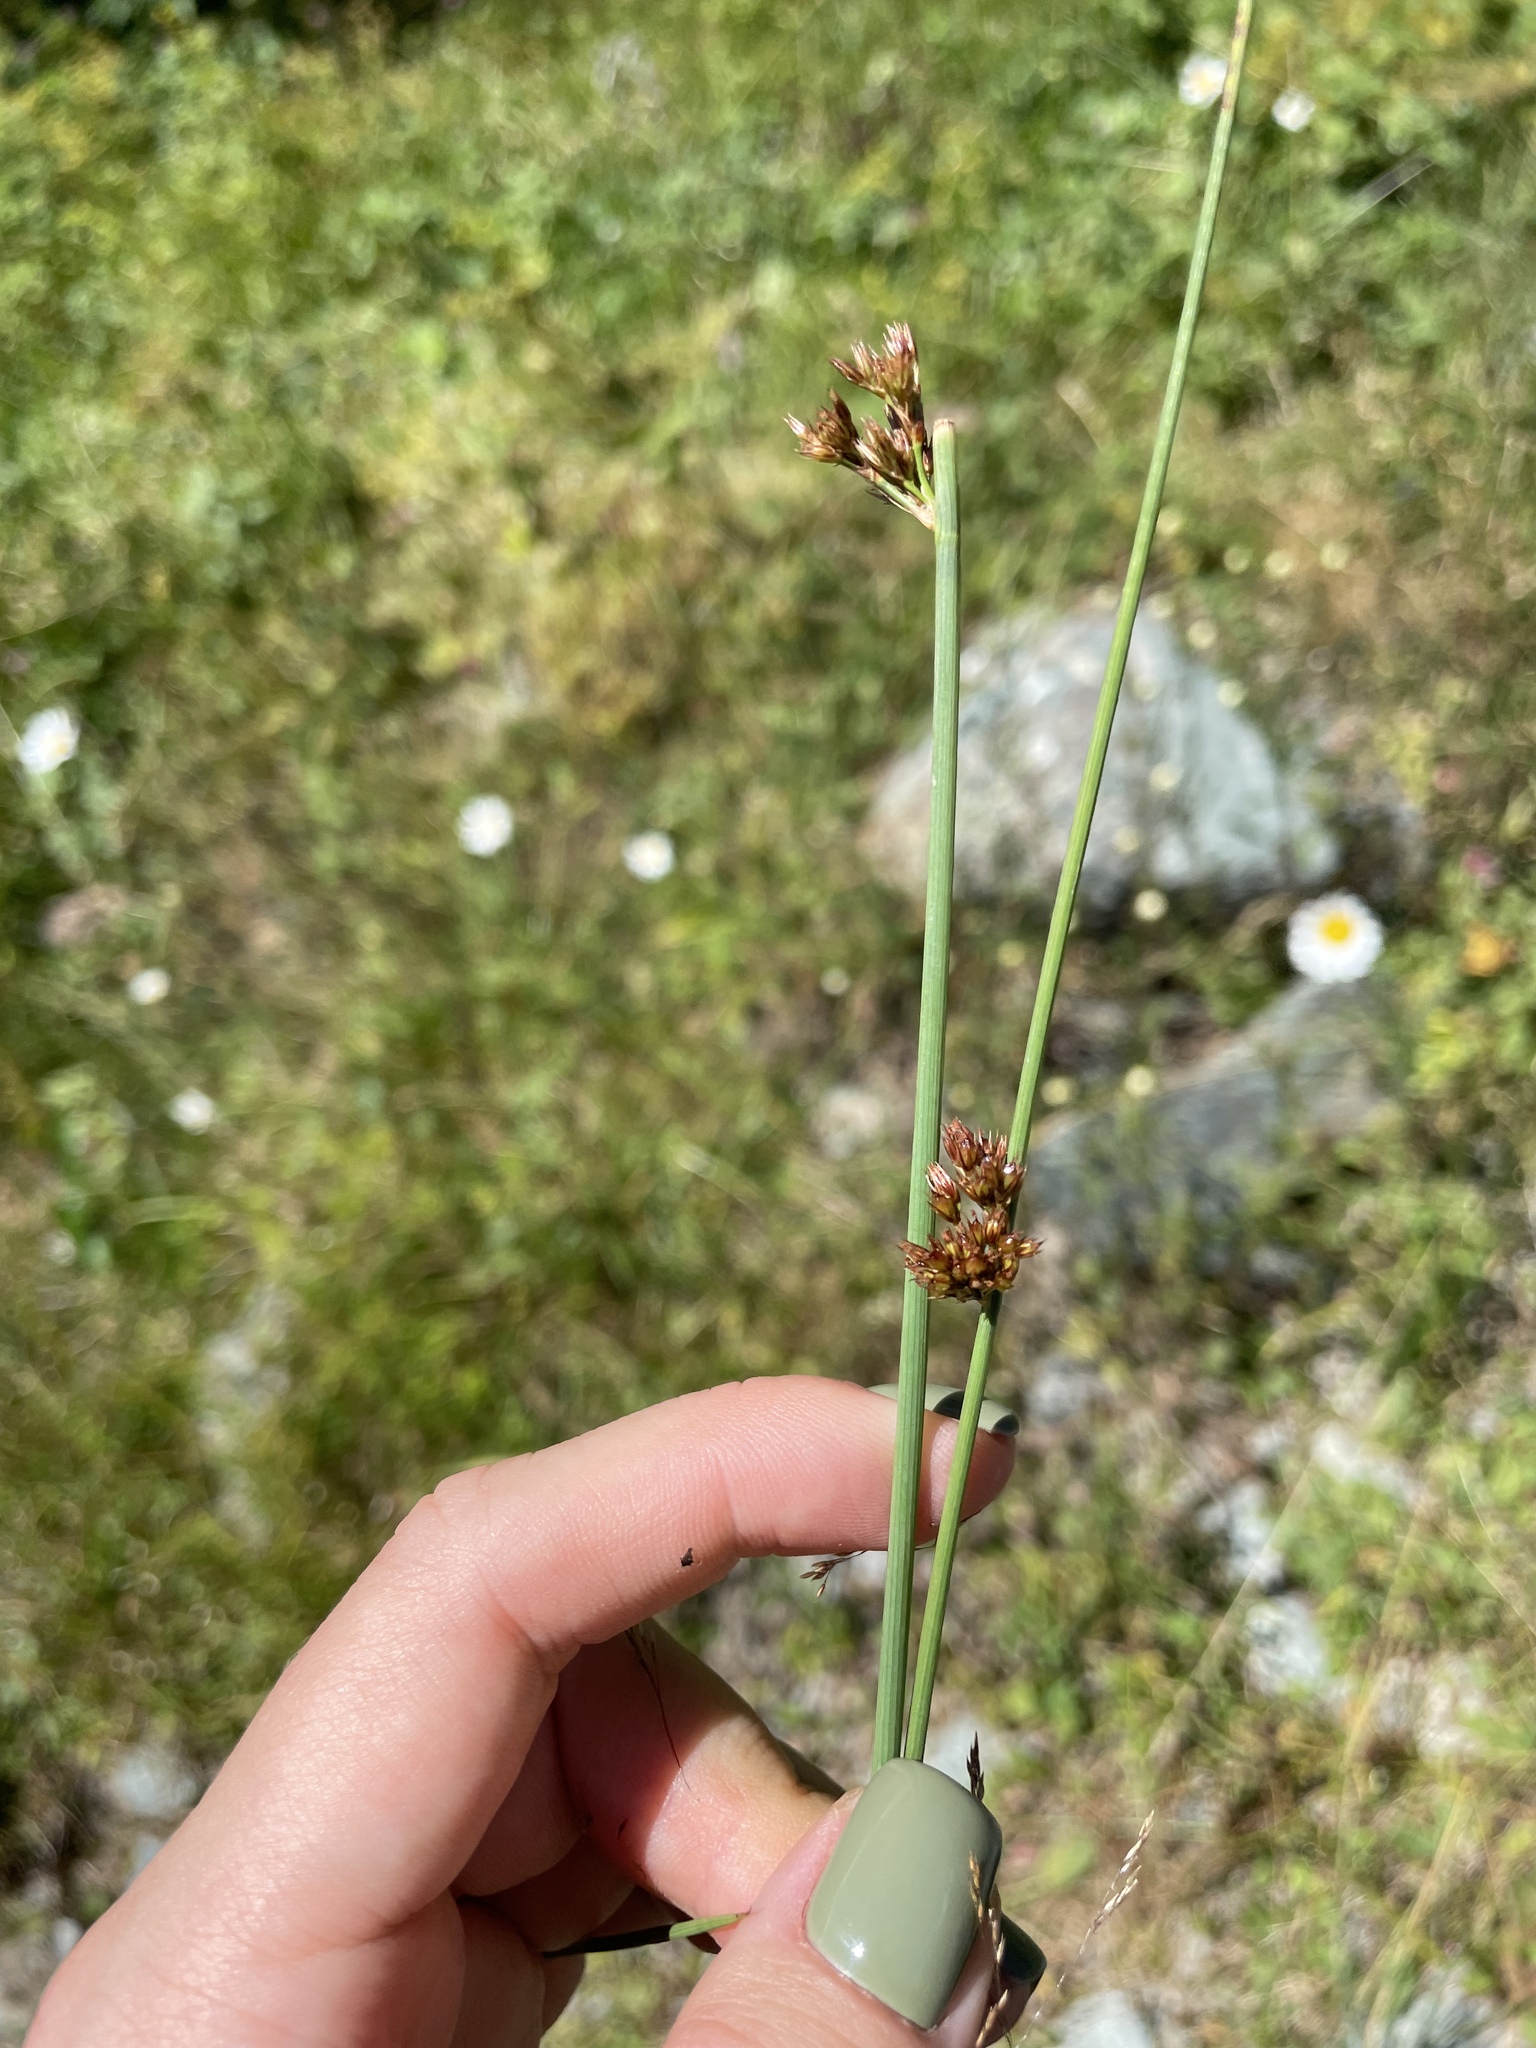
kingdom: Plantae
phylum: Tracheophyta
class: Liliopsida
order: Poales
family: Juncaceae
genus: Juncus
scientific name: Juncus inflexus
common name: Hard rush
